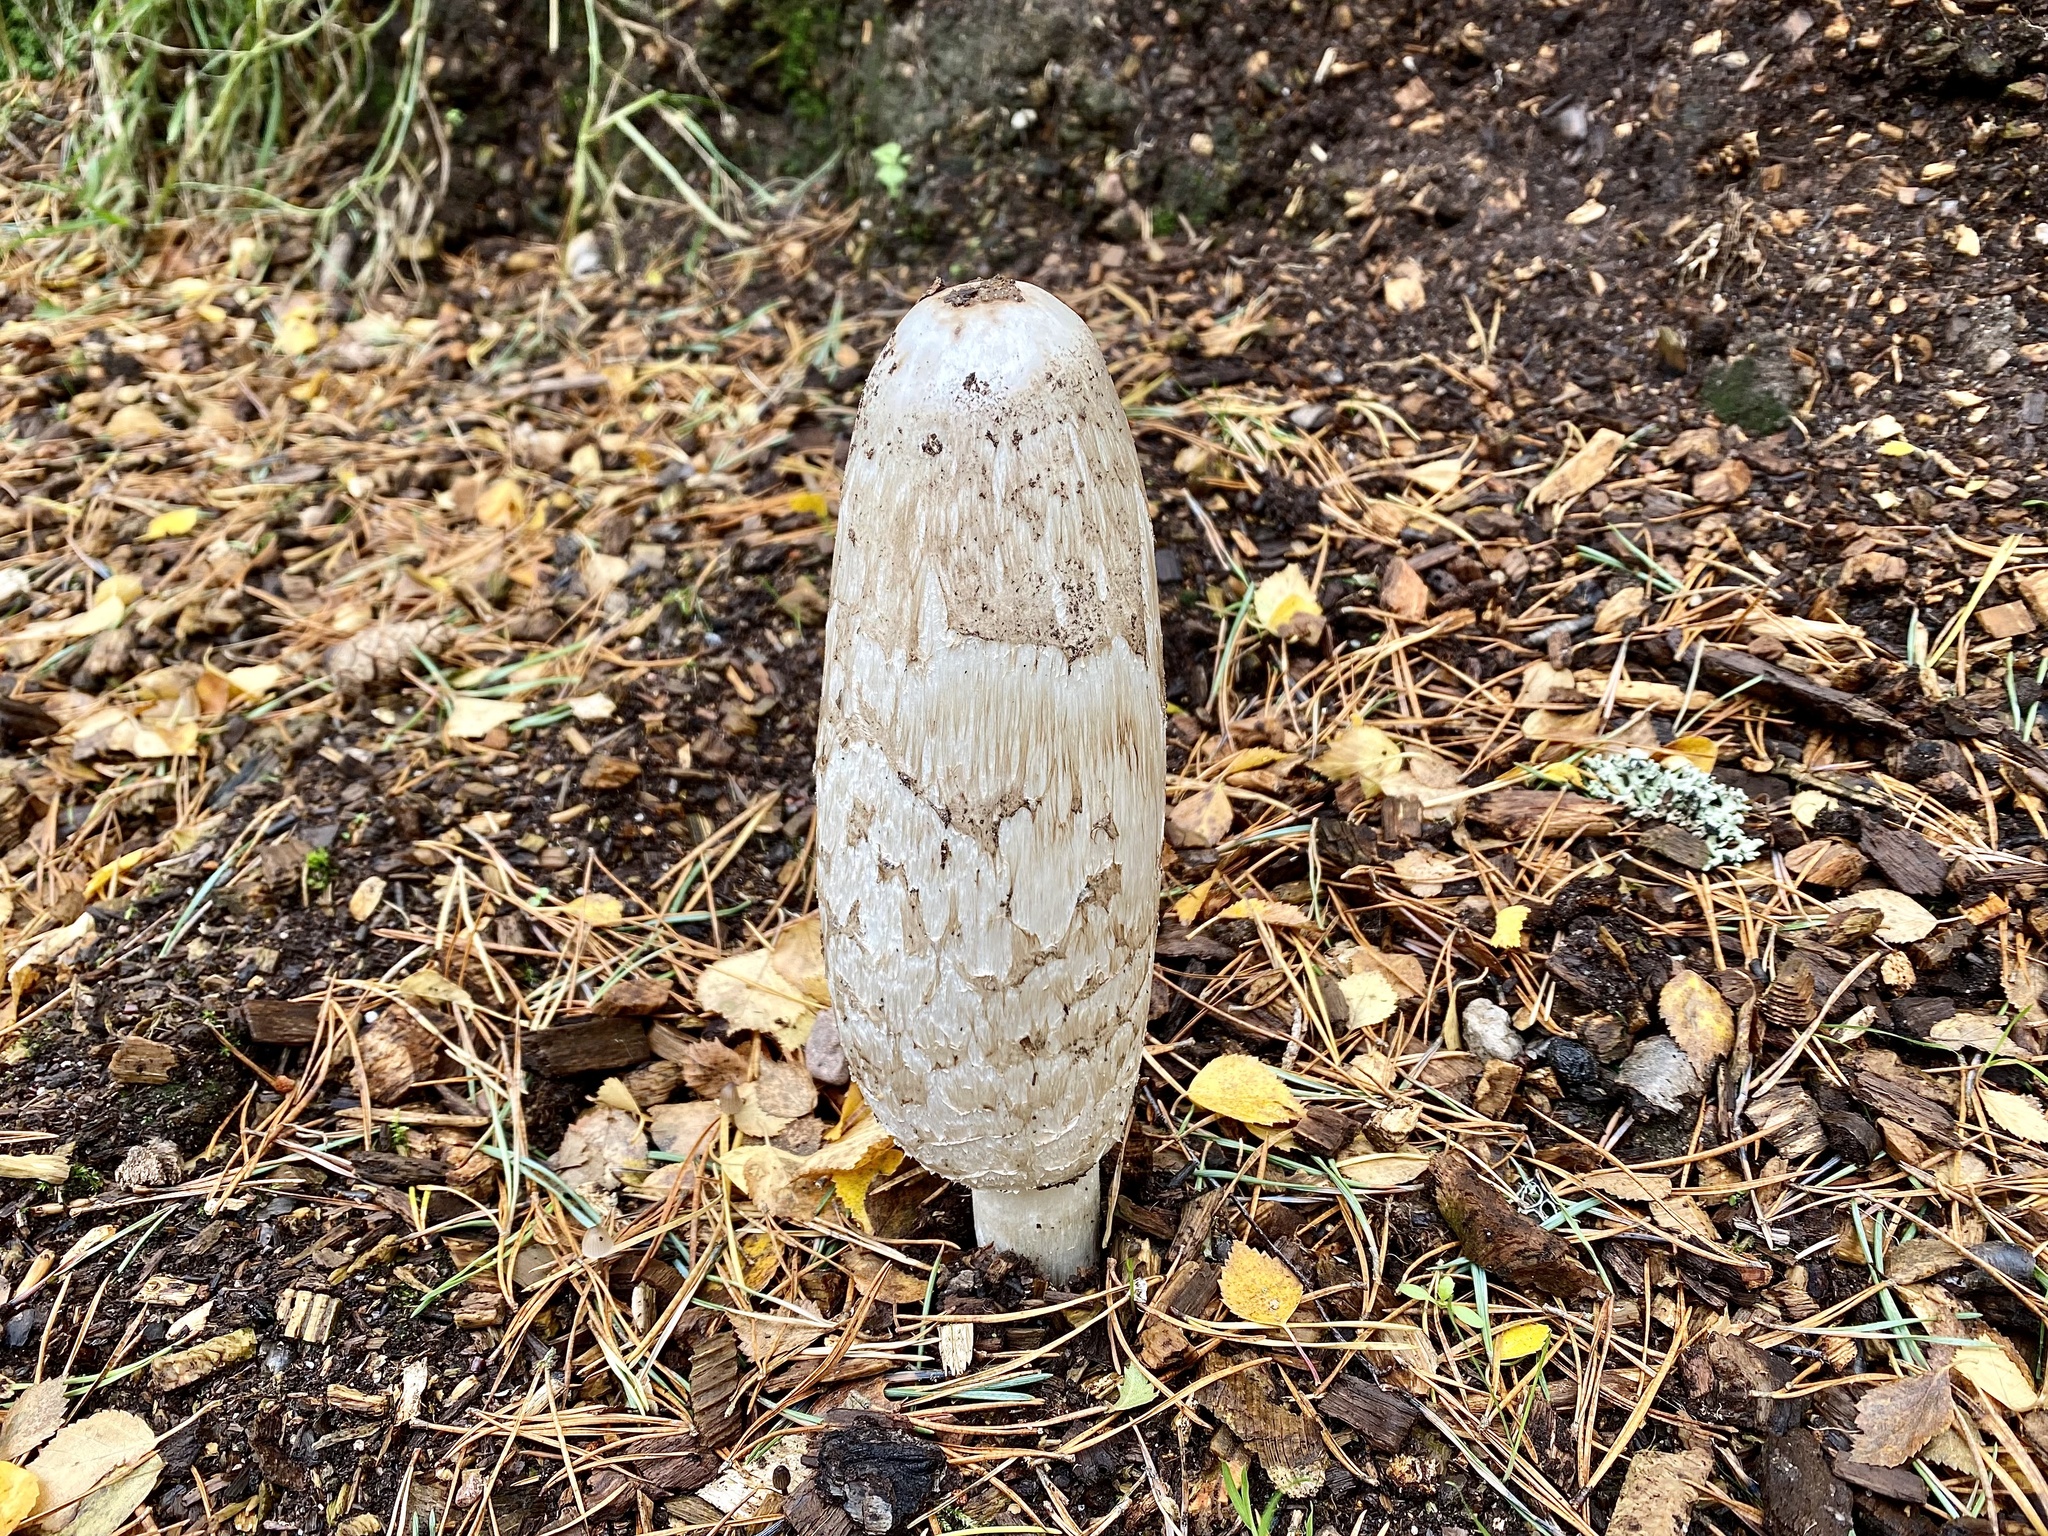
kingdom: Fungi
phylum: Basidiomycota
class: Agaricomycetes
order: Agaricales
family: Agaricaceae
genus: Coprinus
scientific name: Coprinus comatus
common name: Lawyer's wig
